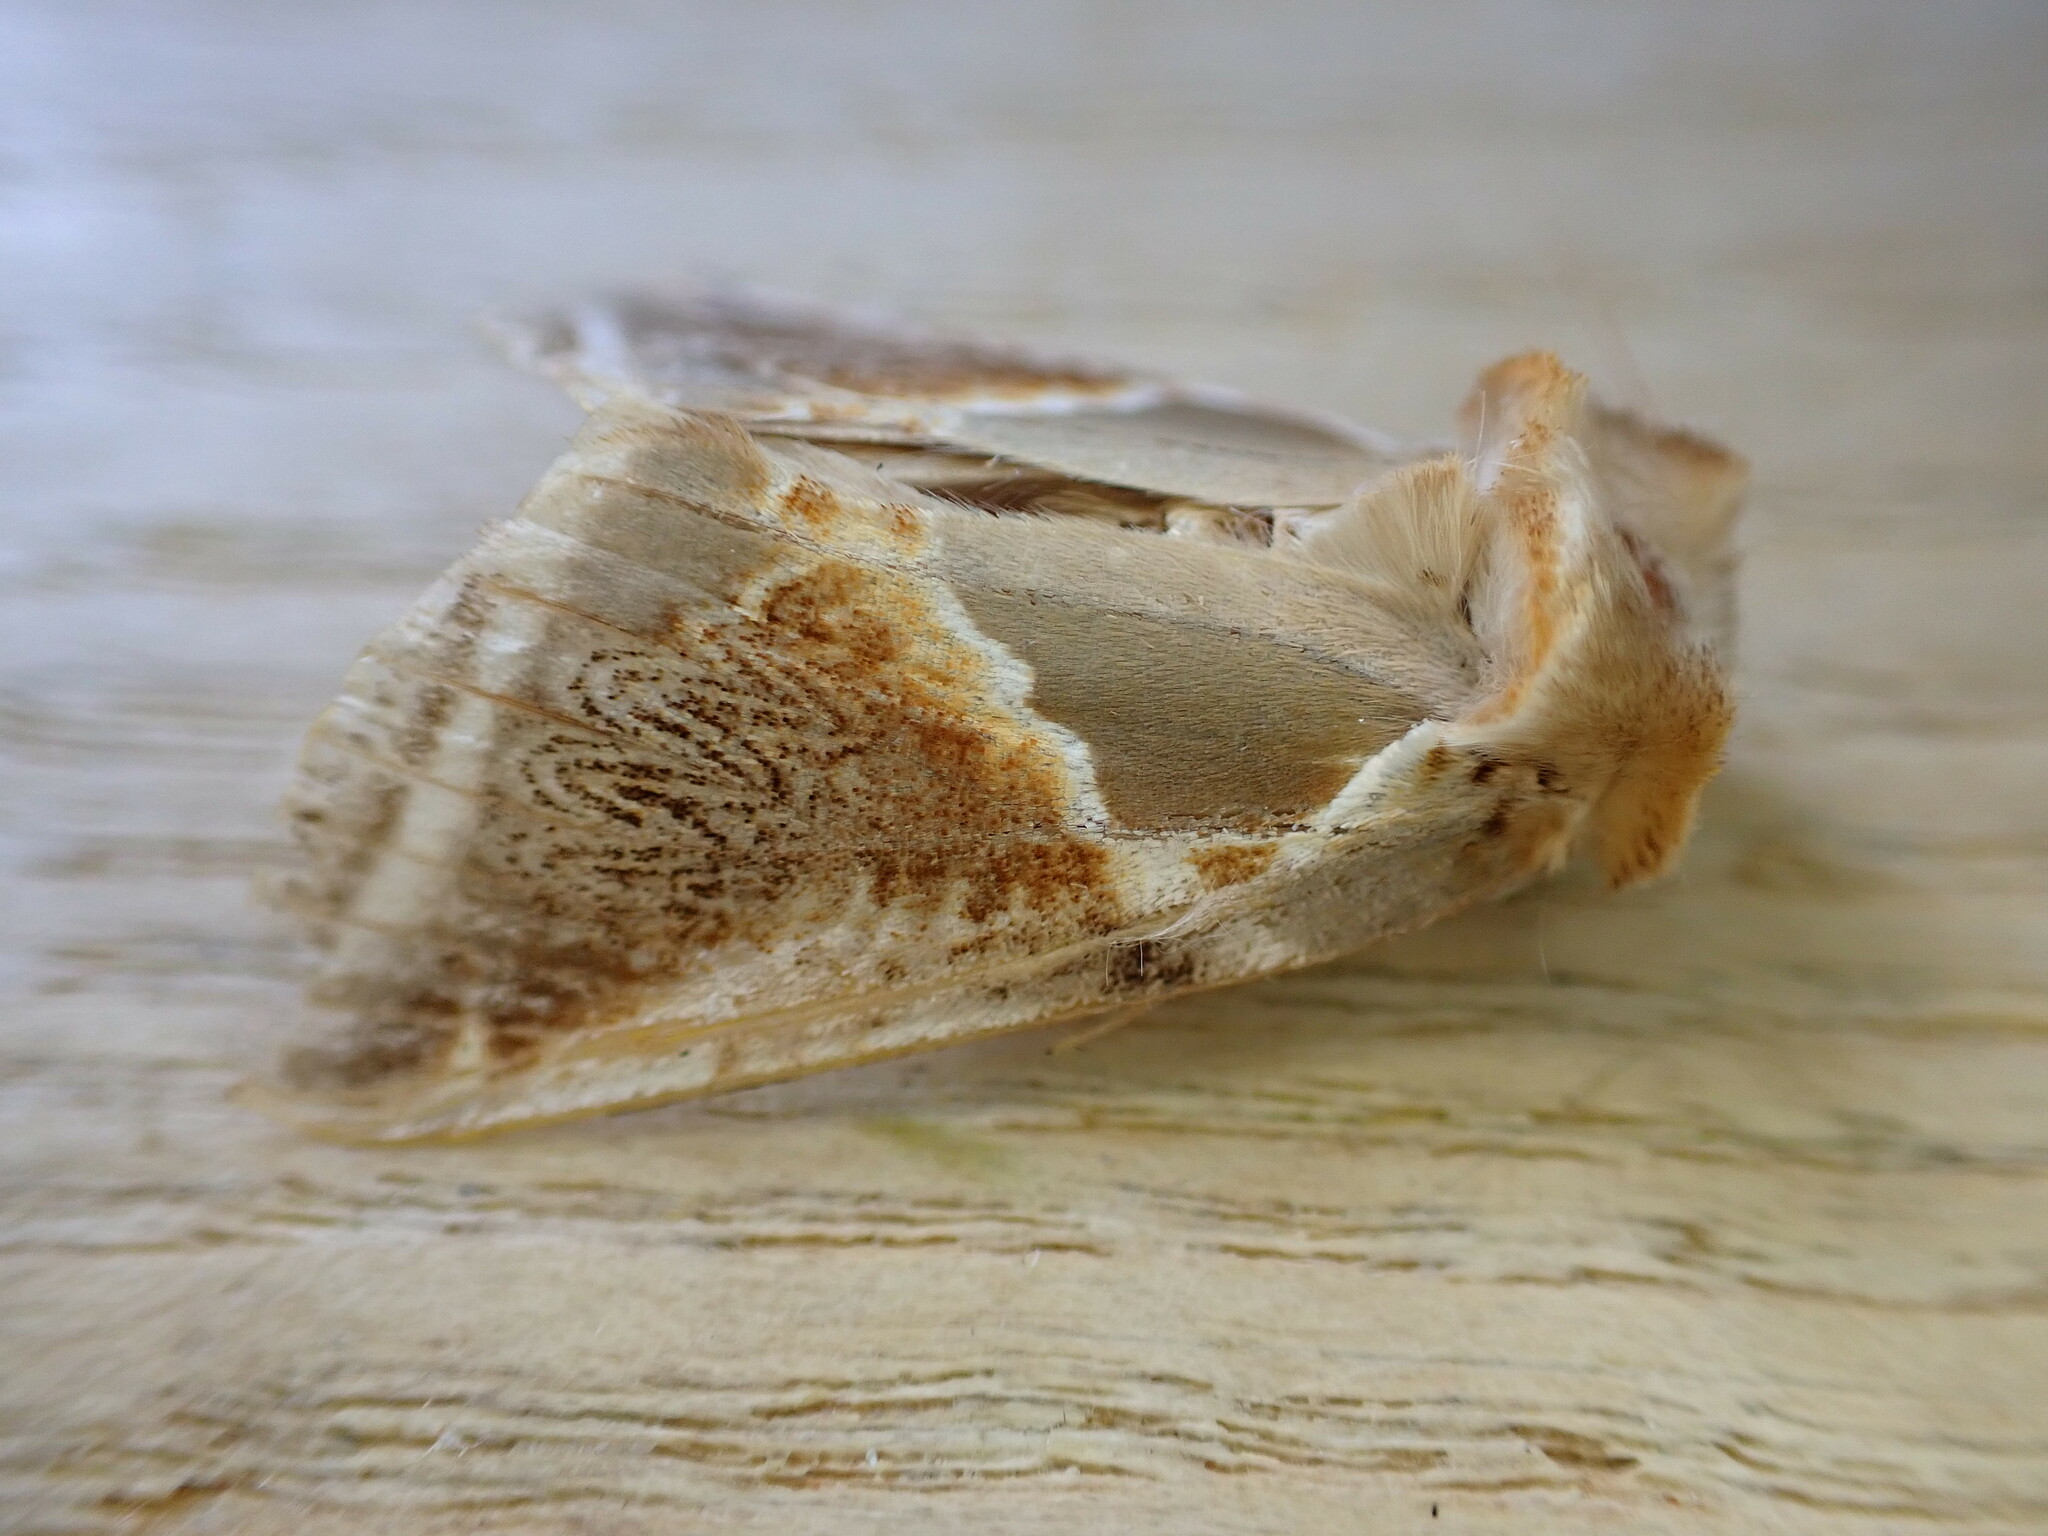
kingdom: Animalia
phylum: Arthropoda
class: Insecta
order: Lepidoptera
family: Drepanidae
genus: Habrosyne
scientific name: Habrosyne pyritoides
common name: Buff arches
